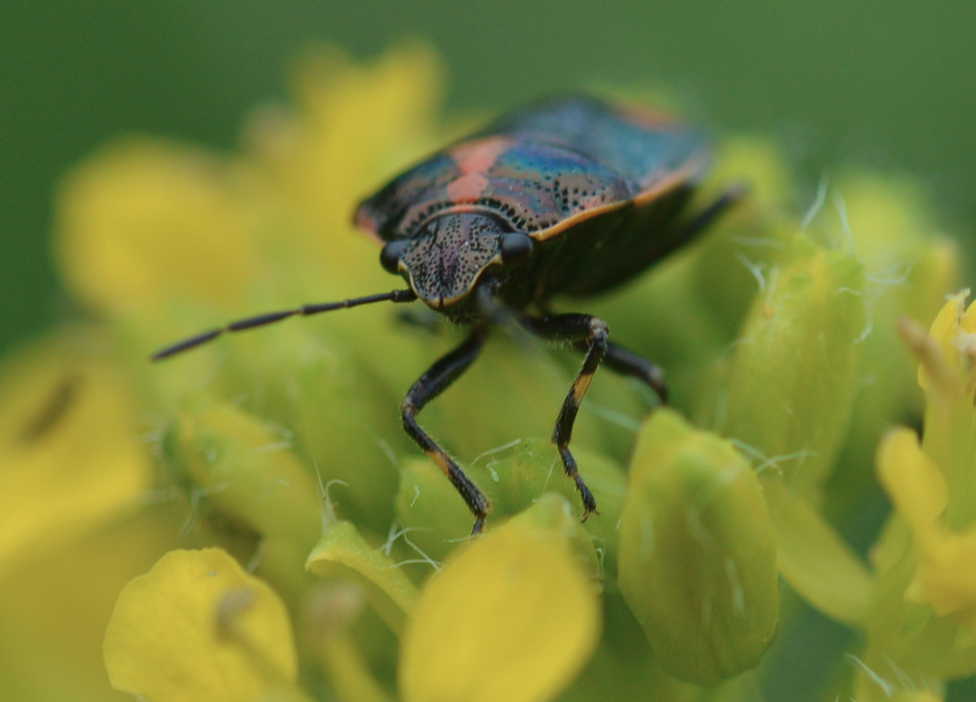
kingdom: Animalia
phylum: Arthropoda
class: Insecta
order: Hemiptera
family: Pentatomidae
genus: Eurydema
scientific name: Eurydema oleracea
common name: Cabbage bug
